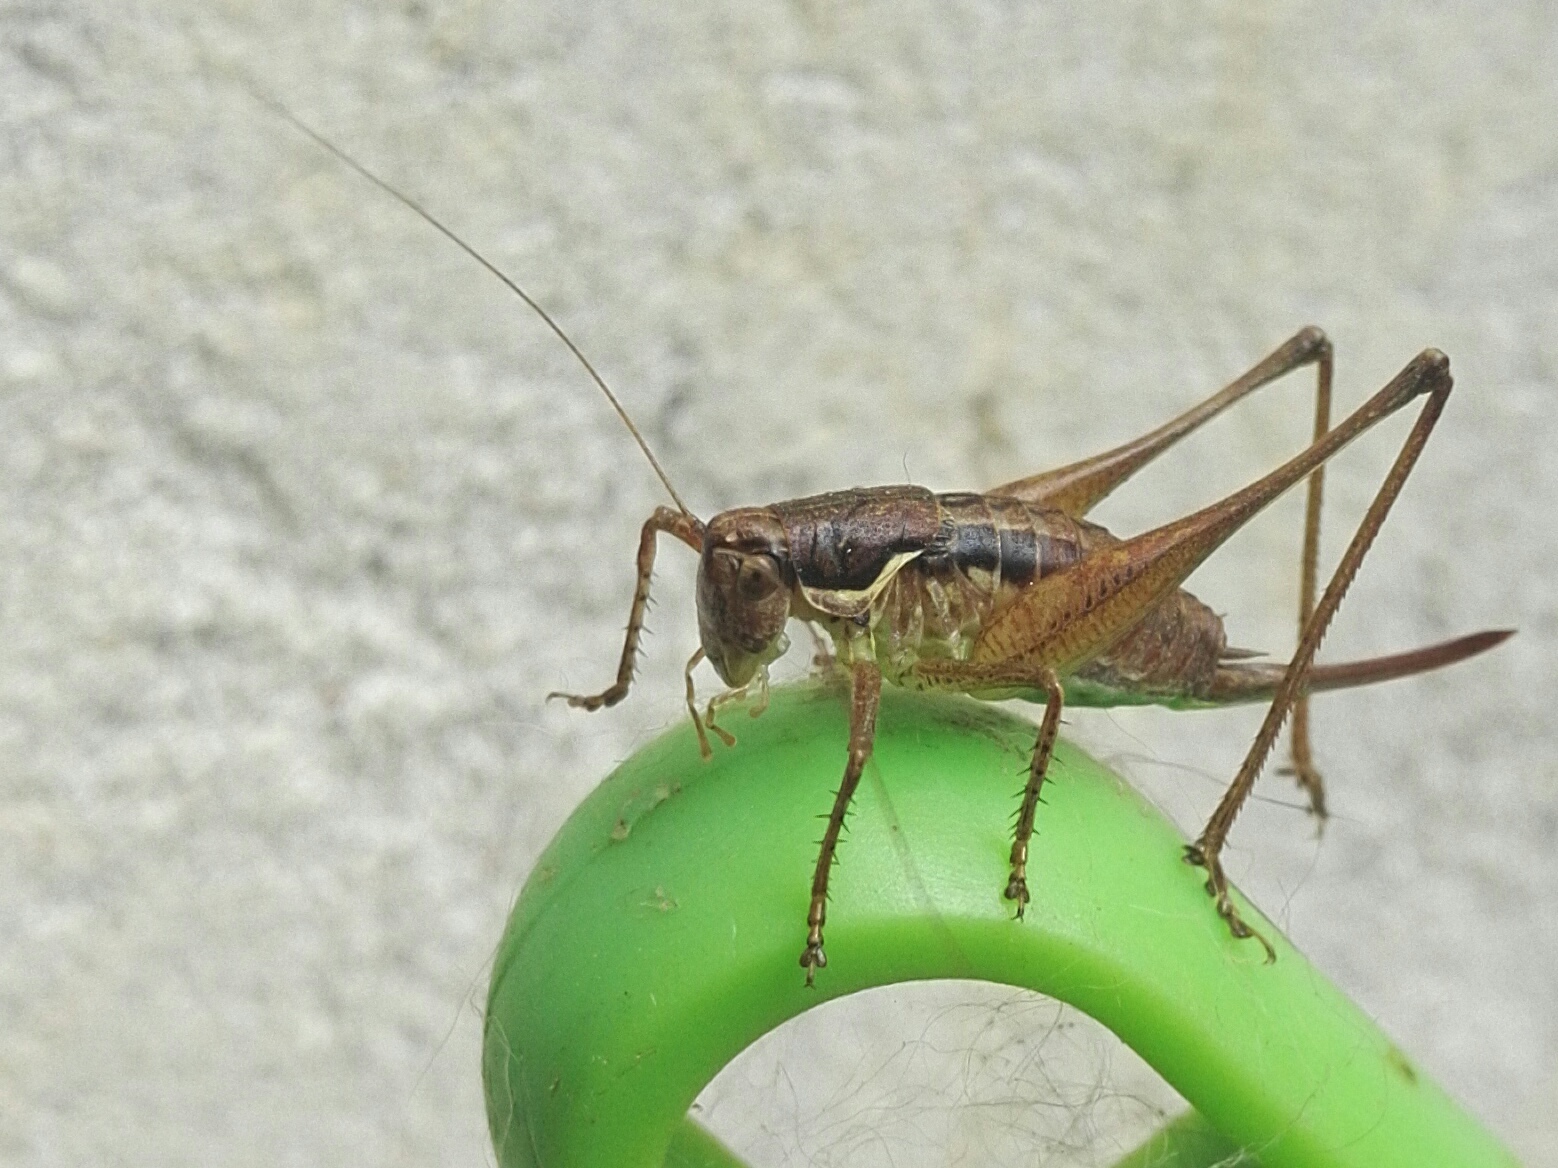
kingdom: Animalia
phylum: Arthropoda
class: Insecta
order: Orthoptera
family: Tettigoniidae
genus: Pachytrachis
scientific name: Pachytrachis gracilis
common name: Graceful bush-cricket
